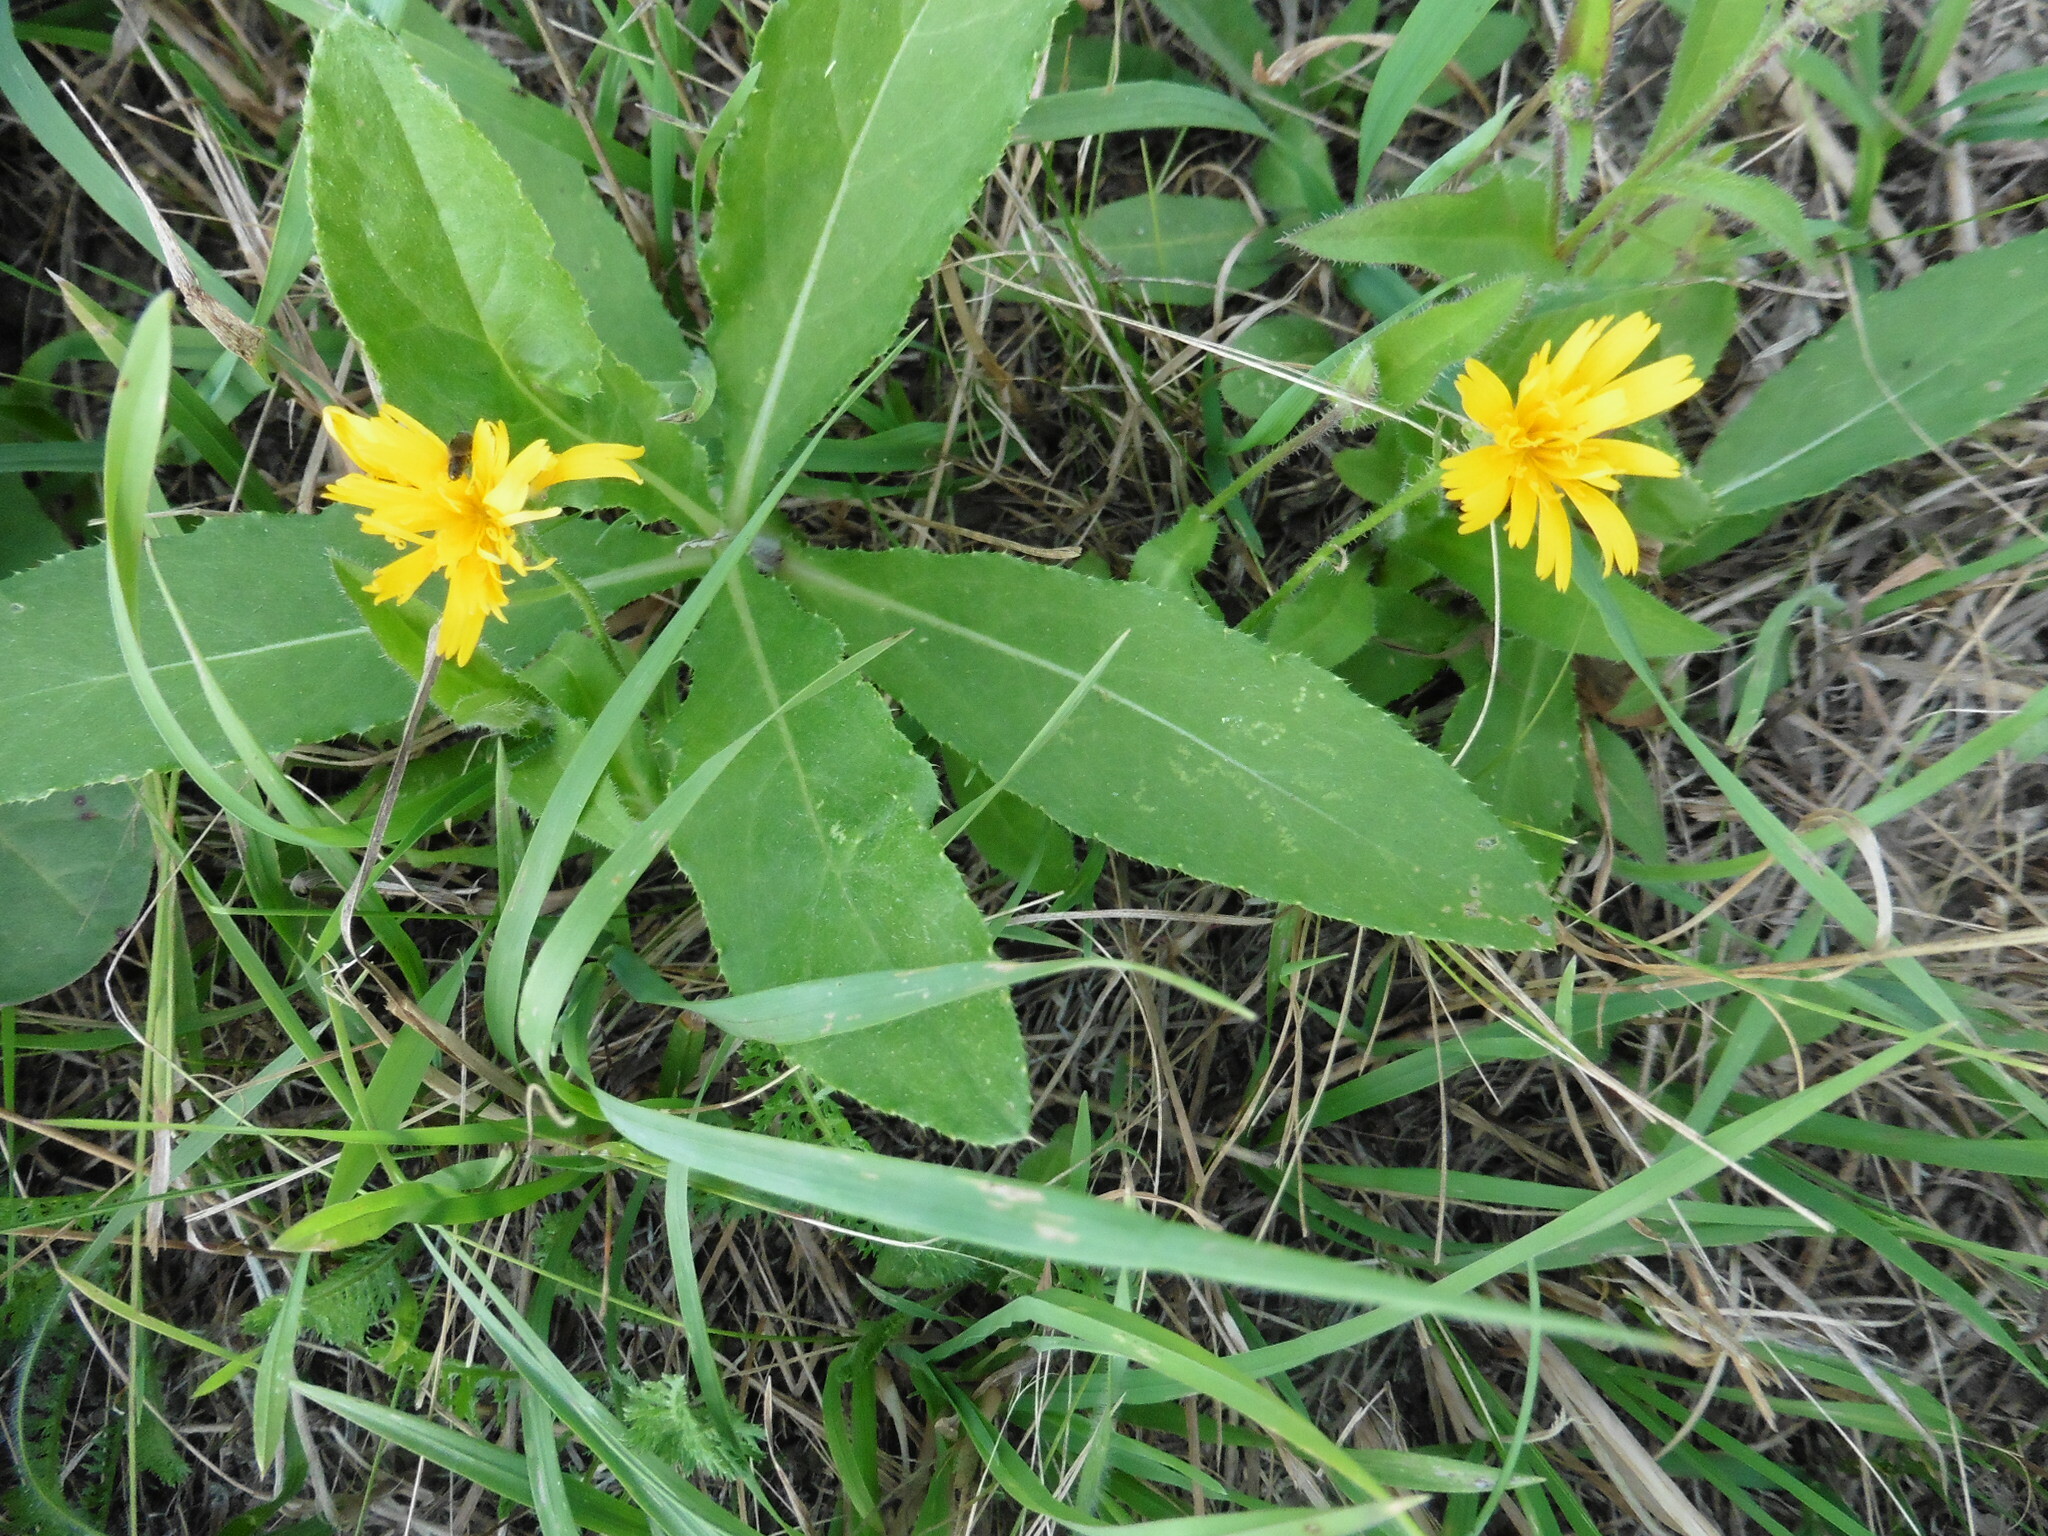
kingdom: Plantae
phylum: Tracheophyta
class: Magnoliopsida
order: Asterales
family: Asteraceae
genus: Picris
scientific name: Picris hieracioides
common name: Hawkweed oxtongue
